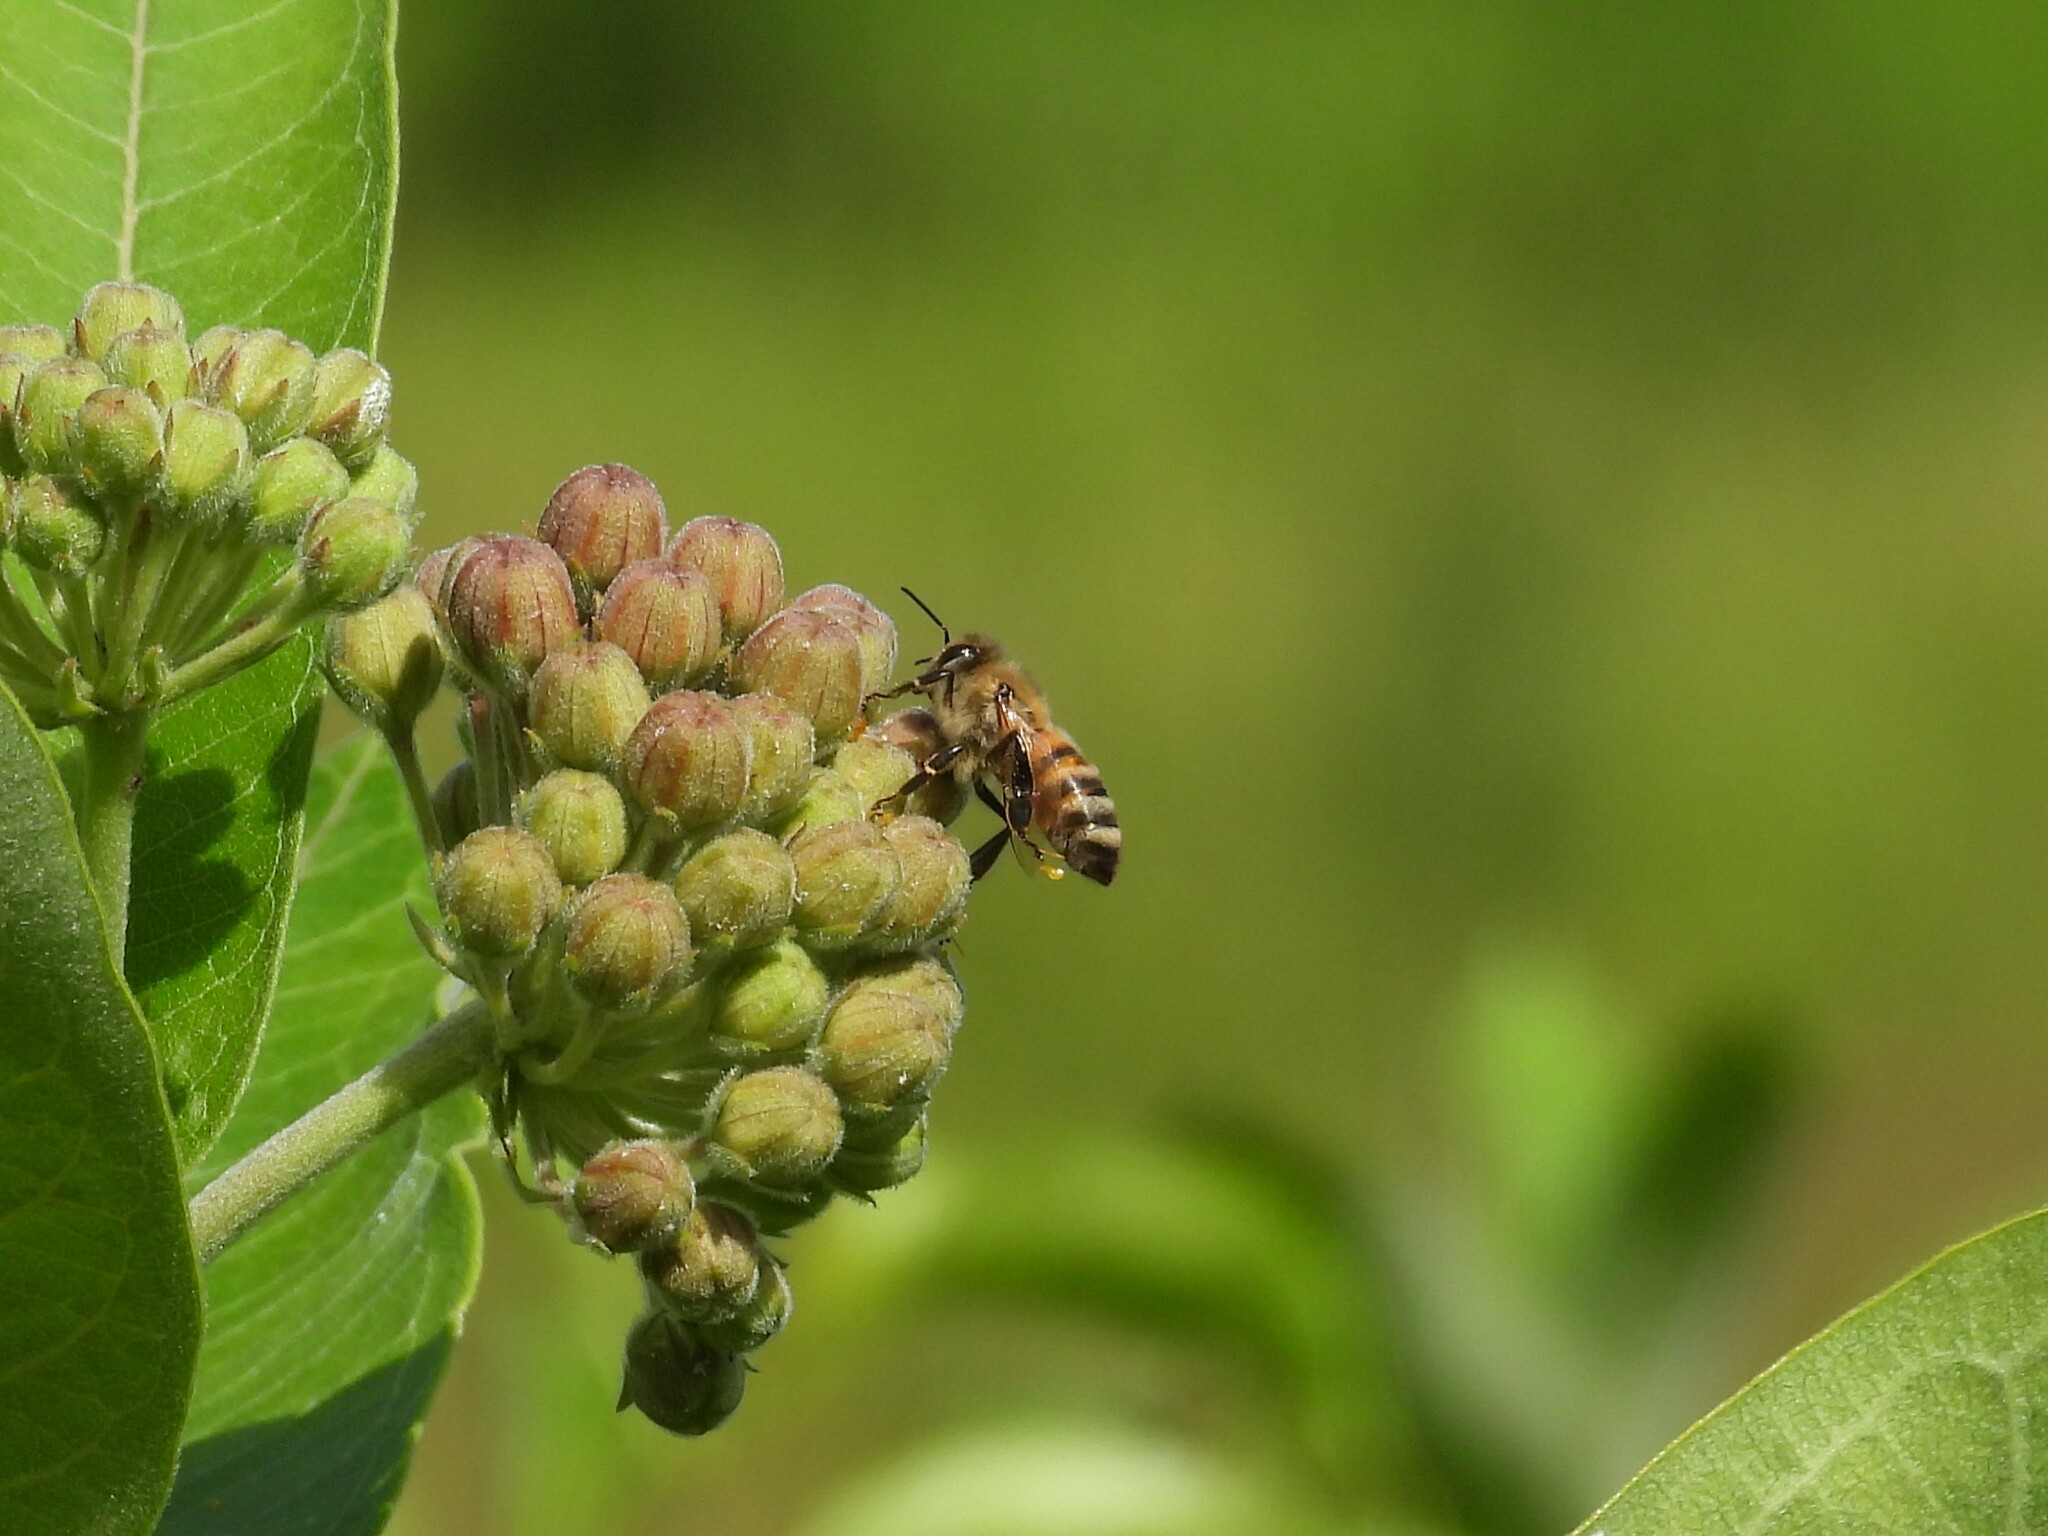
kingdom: Animalia
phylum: Arthropoda
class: Insecta
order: Hymenoptera
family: Apidae
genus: Apis
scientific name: Apis mellifera
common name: Honey bee
